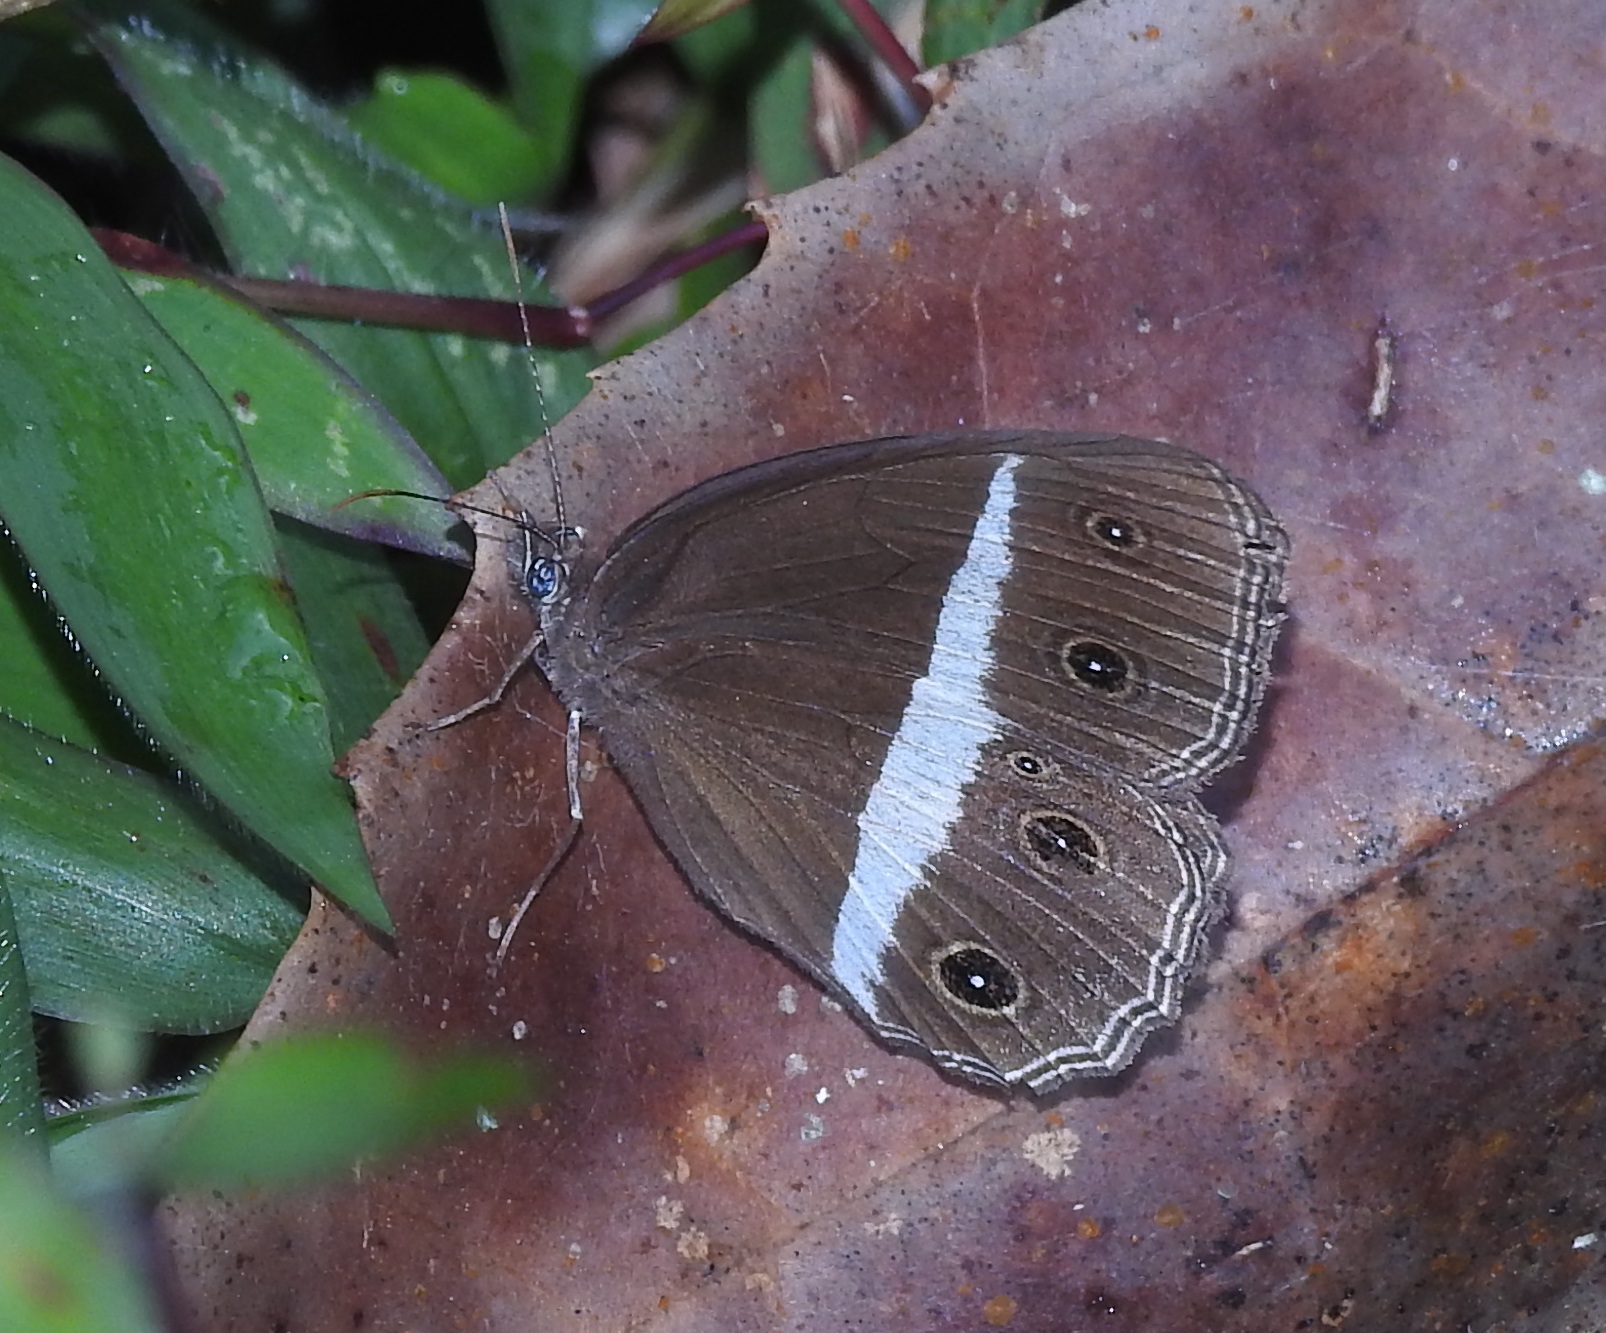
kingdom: Animalia
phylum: Arthropoda
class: Insecta
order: Lepidoptera
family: Nymphalidae
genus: Orsotriaena
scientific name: Orsotriaena medus
